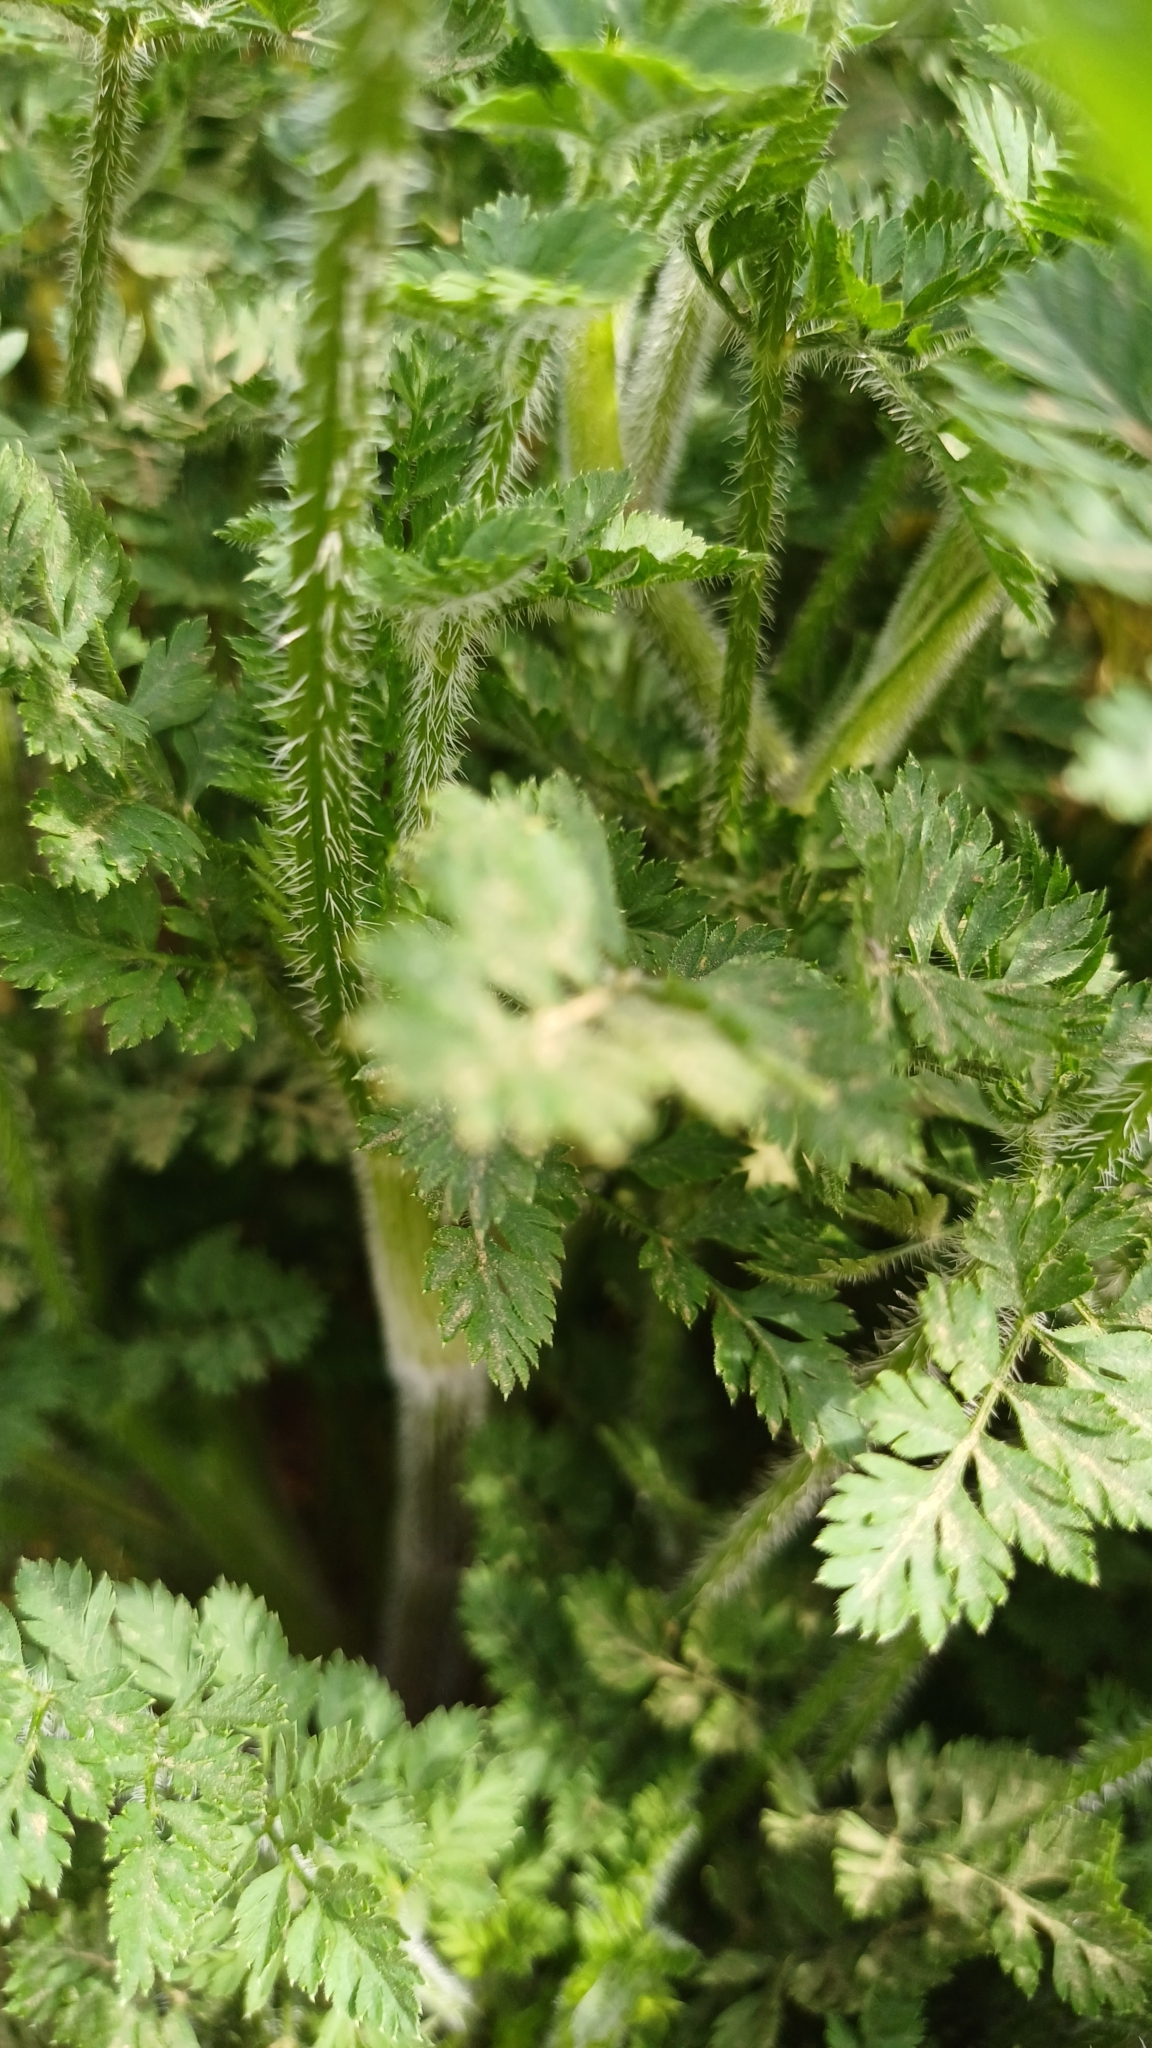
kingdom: Plantae
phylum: Tracheophyta
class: Magnoliopsida
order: Apiales
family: Apiaceae
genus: Daucus
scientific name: Daucus carota
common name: Wild carrot
